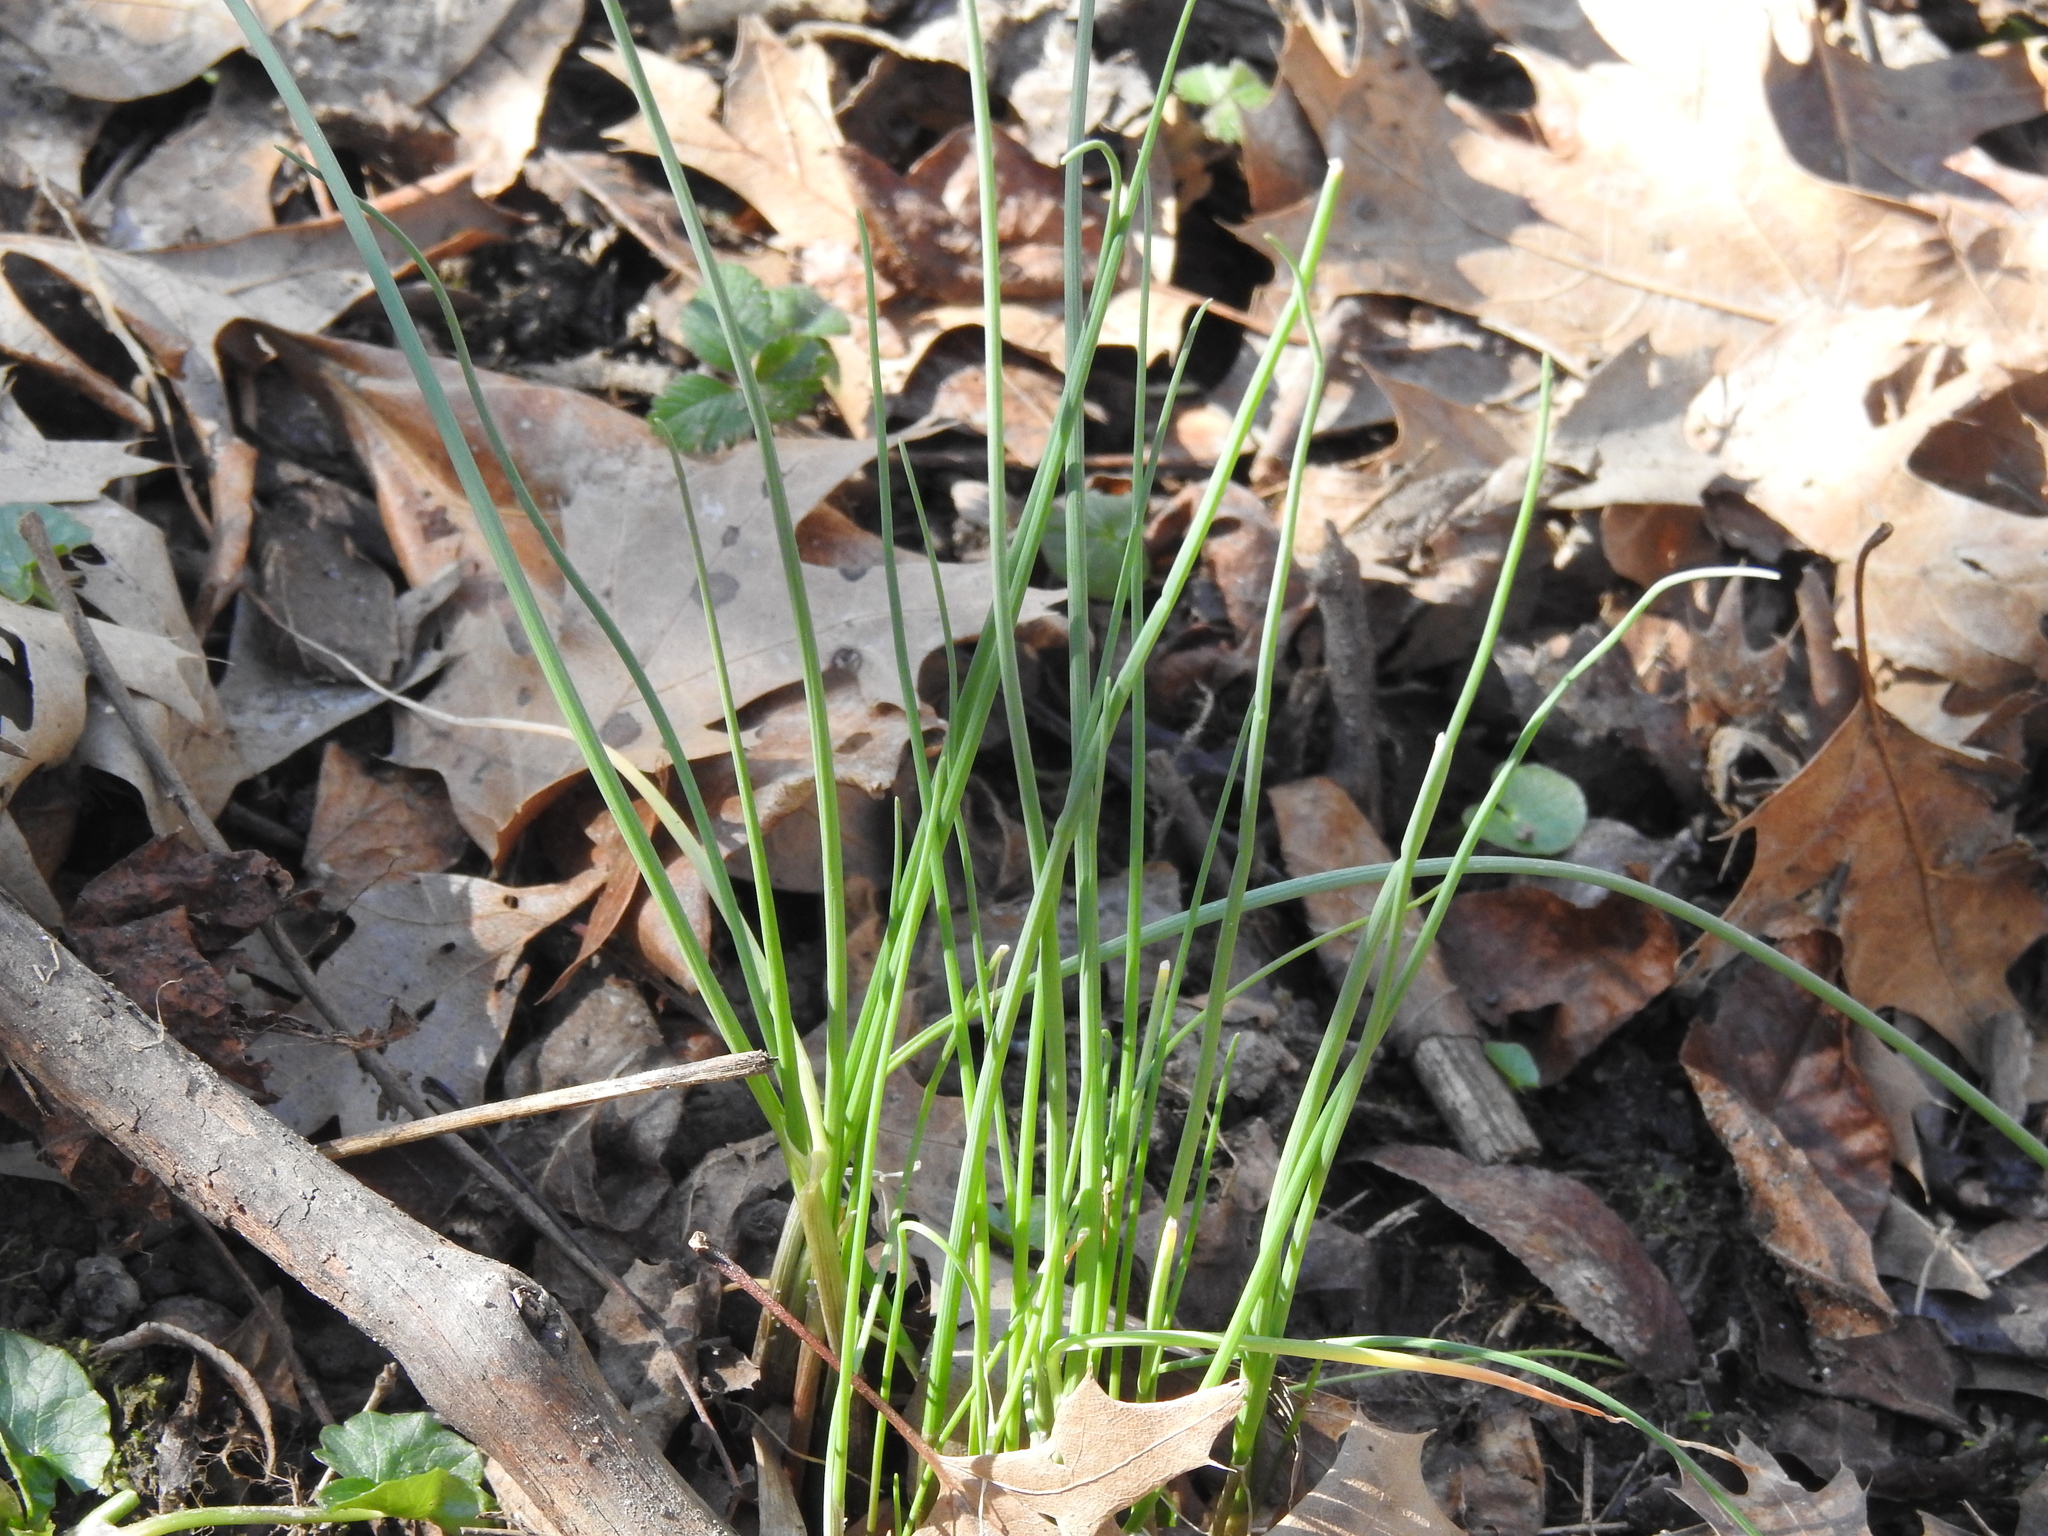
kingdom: Plantae
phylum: Tracheophyta
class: Liliopsida
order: Asparagales
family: Amaryllidaceae
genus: Allium
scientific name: Allium vineale
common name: Crow garlic
